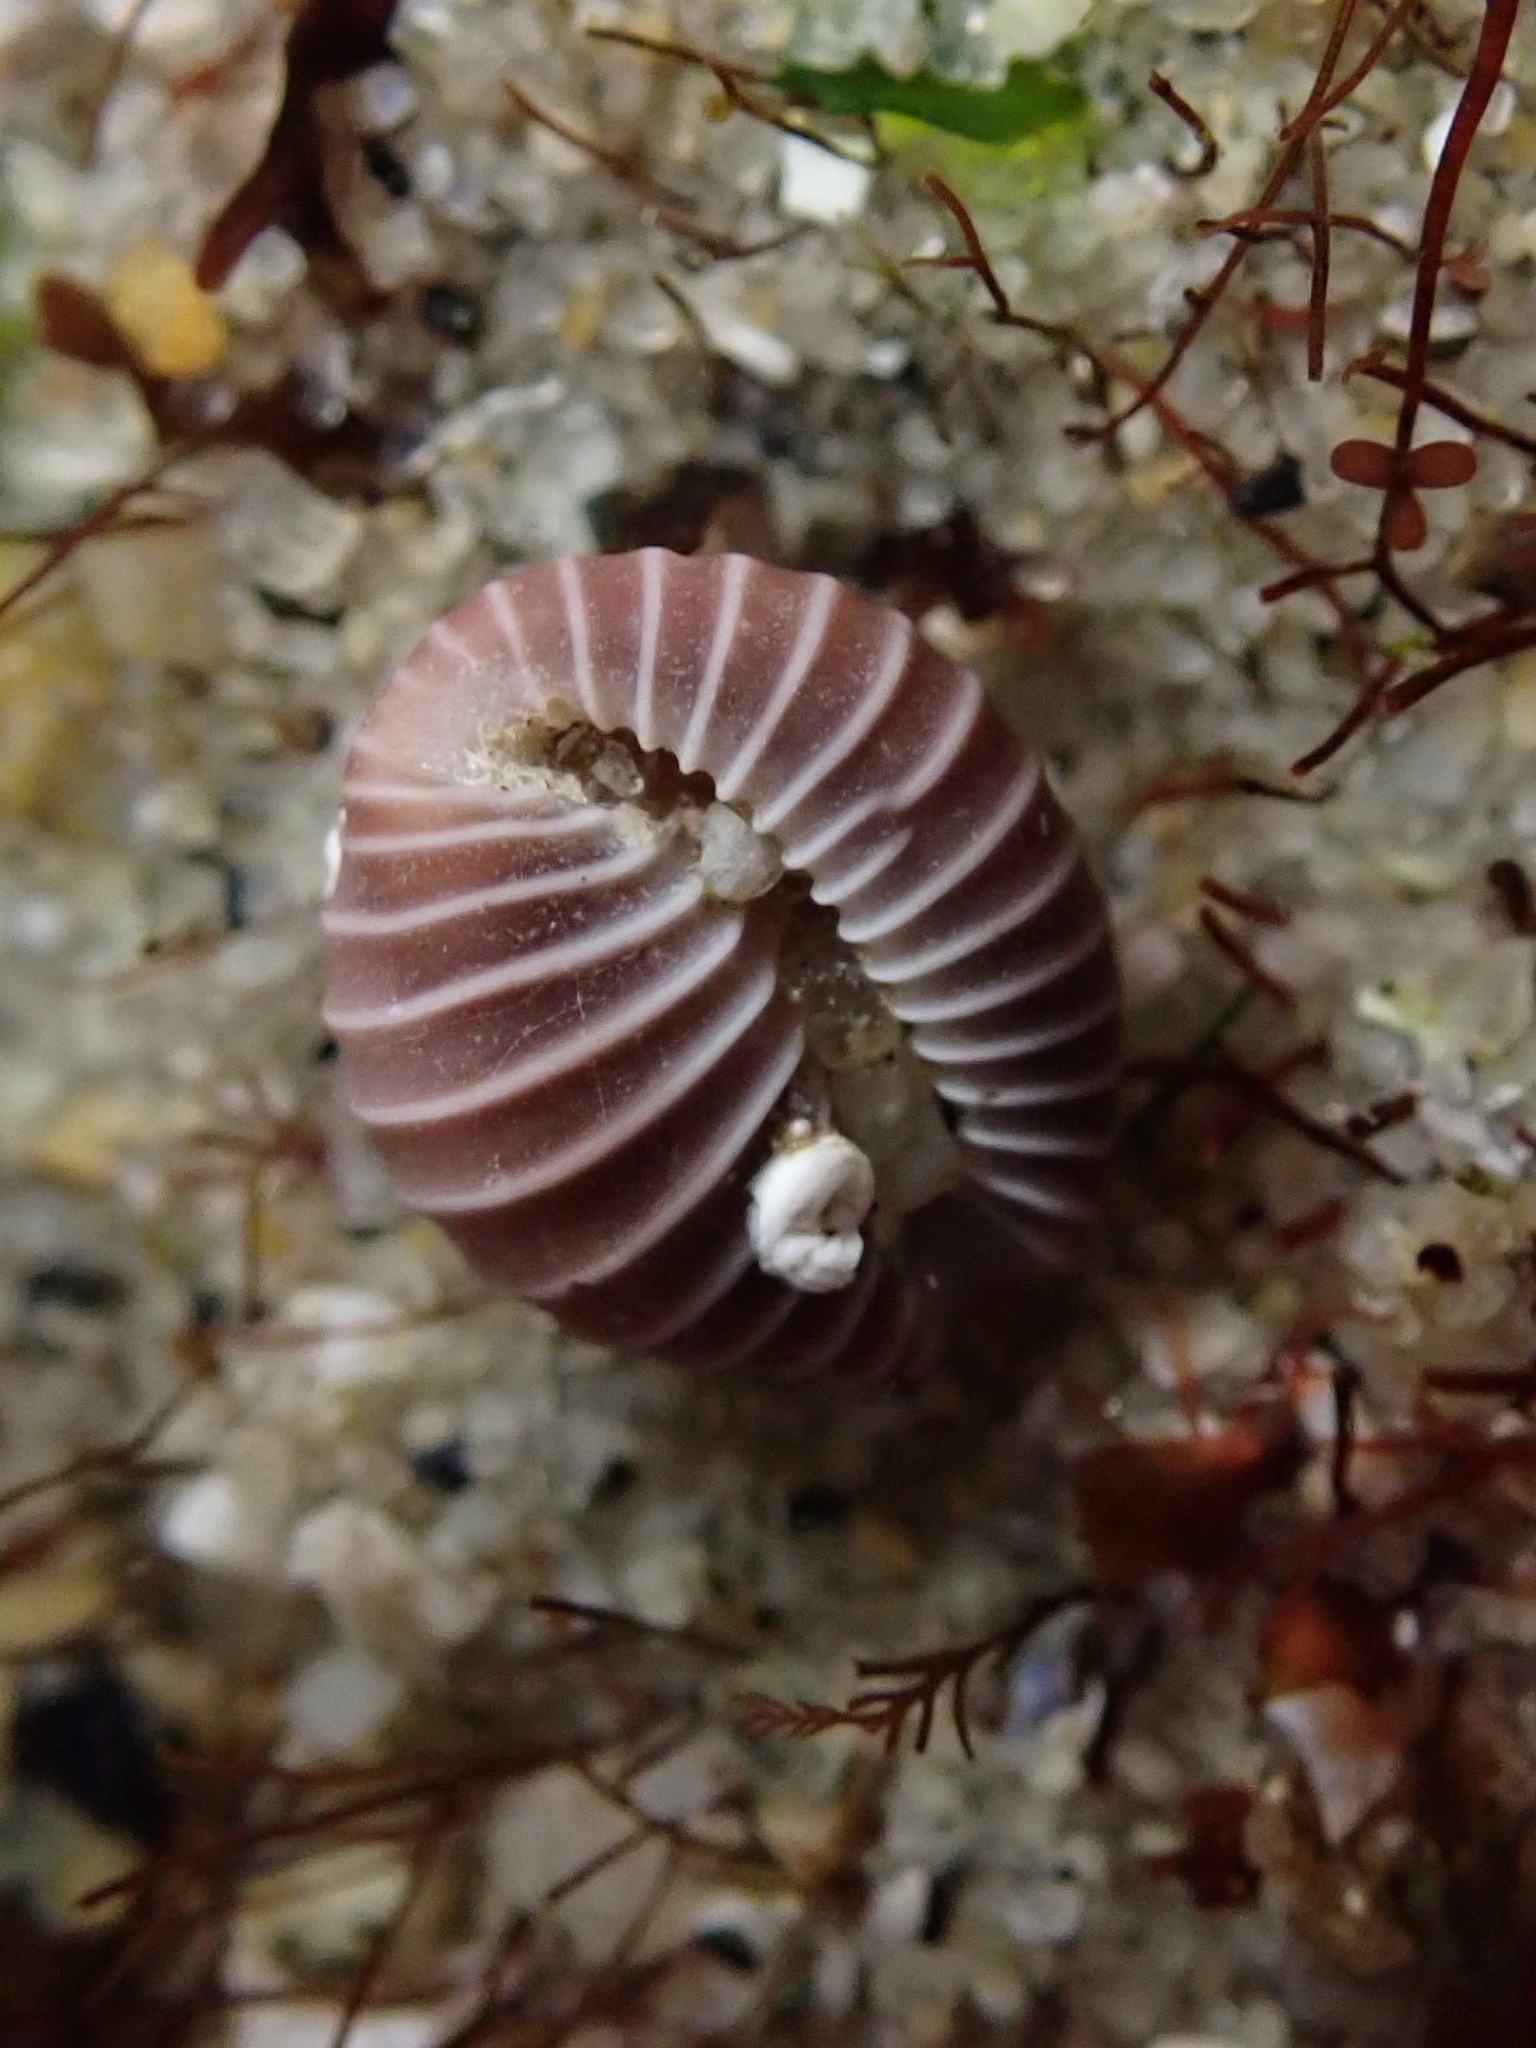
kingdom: Animalia
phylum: Mollusca
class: Gastropoda
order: Littorinimorpha
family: Triviidae
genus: Pseudopusula
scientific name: Pseudopusula californiana
